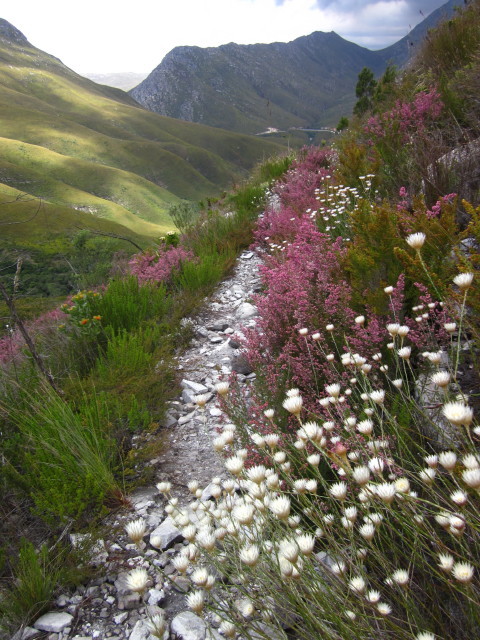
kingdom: Plantae
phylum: Tracheophyta
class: Magnoliopsida
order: Asterales
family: Asteraceae
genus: Edmondia
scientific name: Edmondia sesamoides
